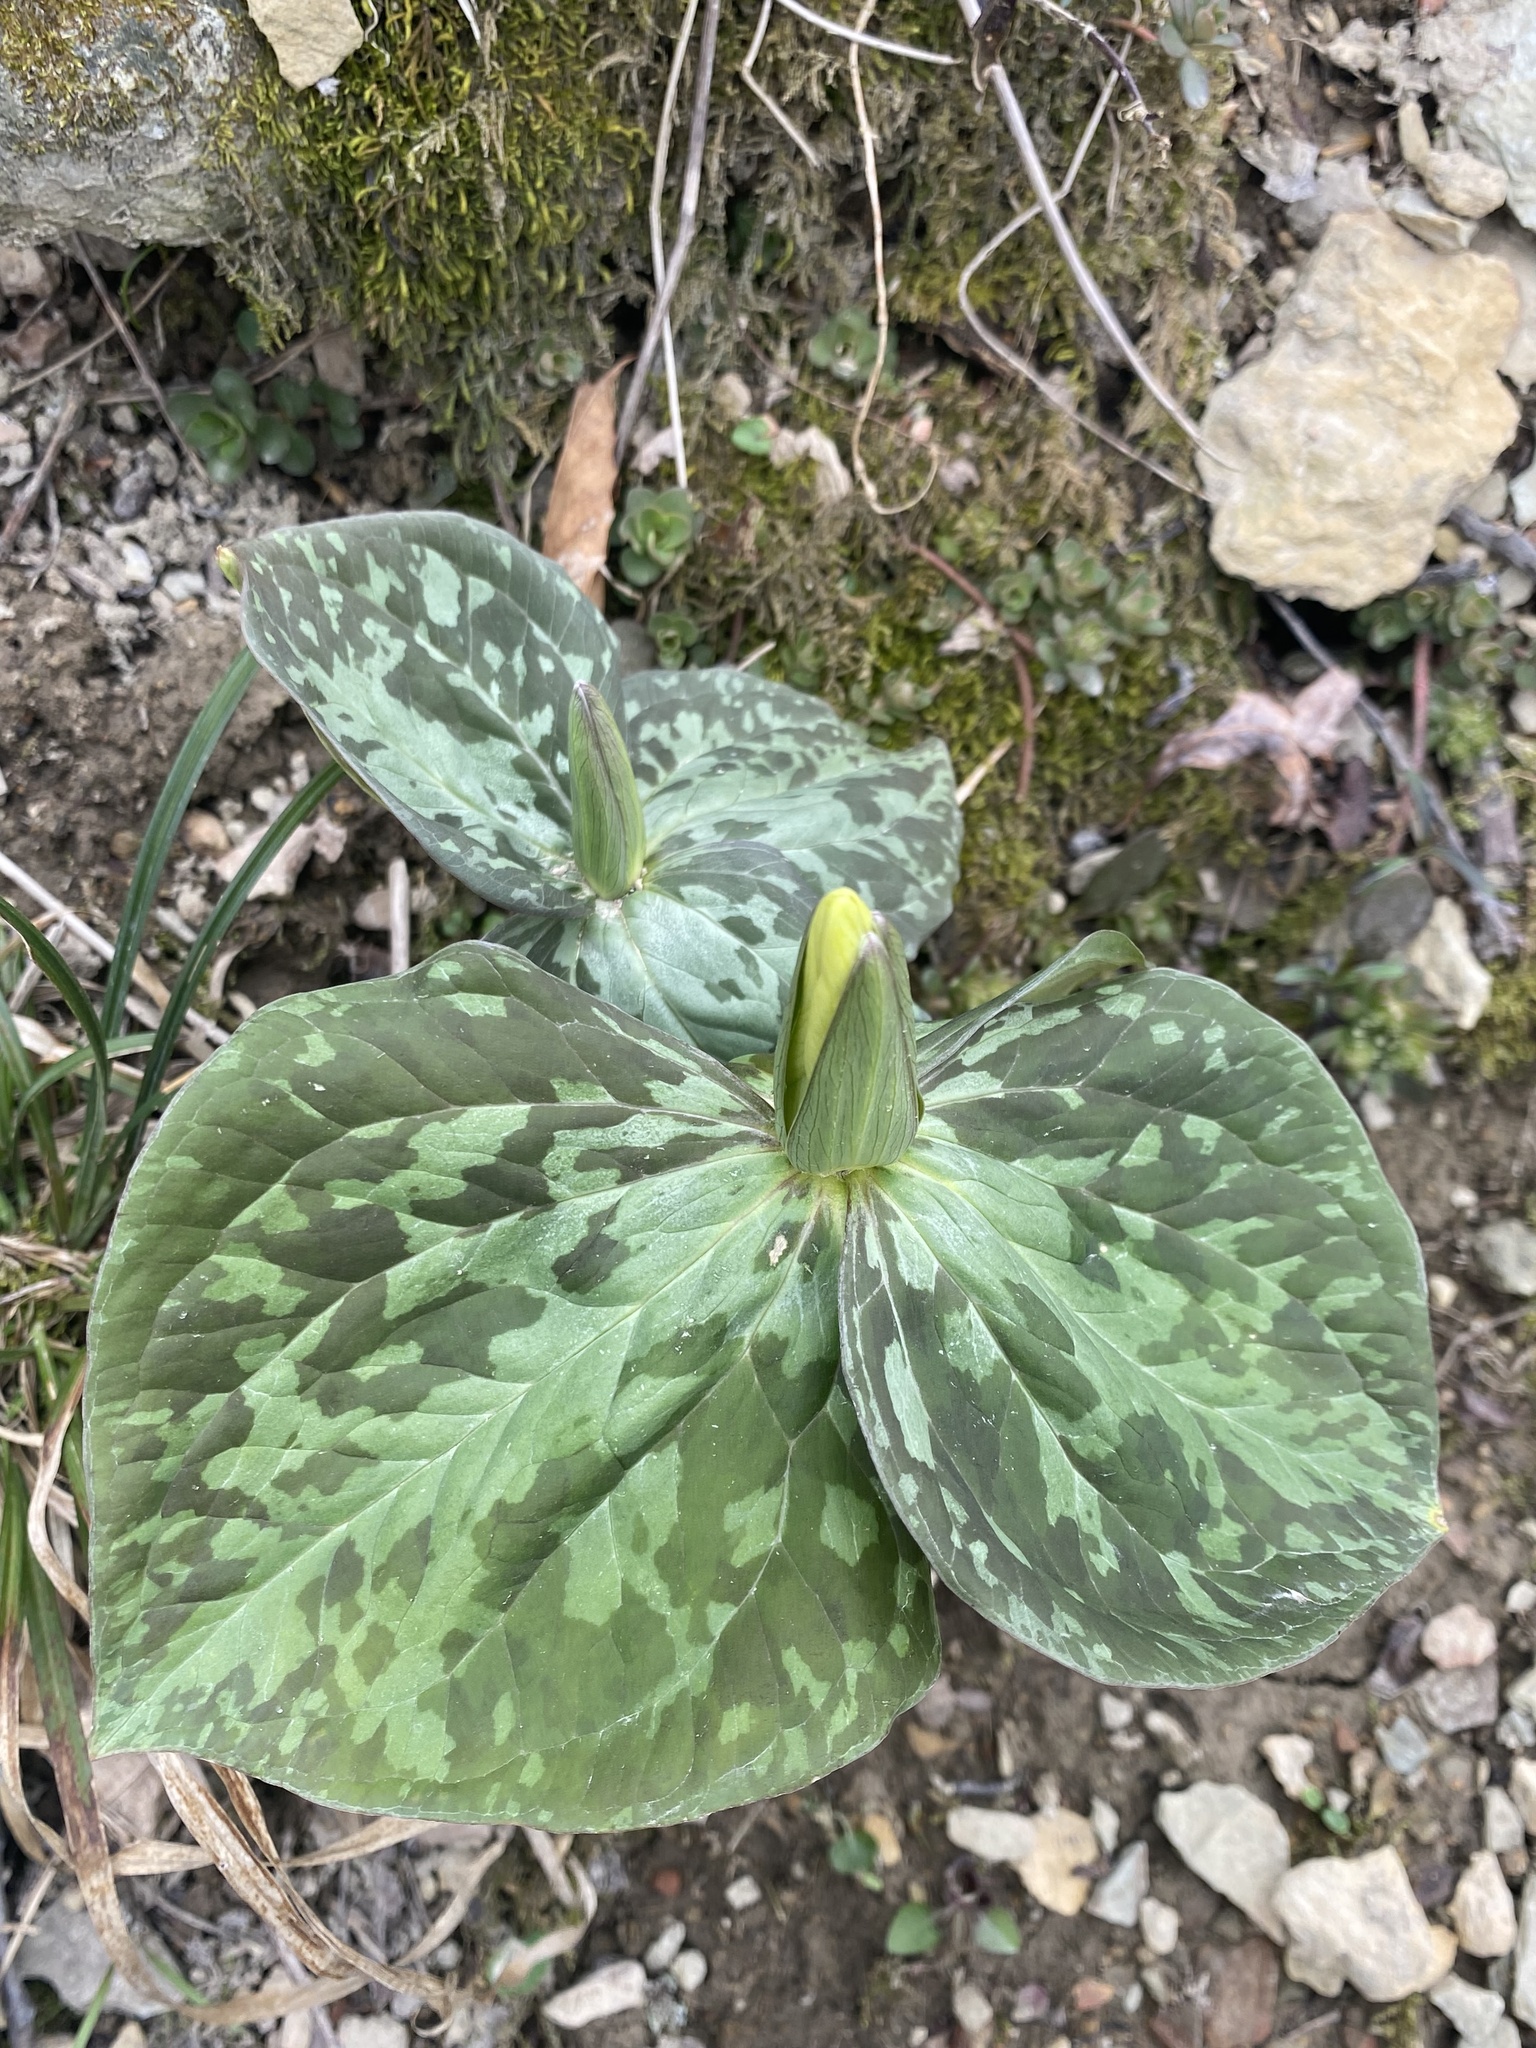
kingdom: Plantae
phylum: Tracheophyta
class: Liliopsida
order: Liliales
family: Melanthiaceae
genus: Trillium
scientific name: Trillium luteum
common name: Wax trillium
